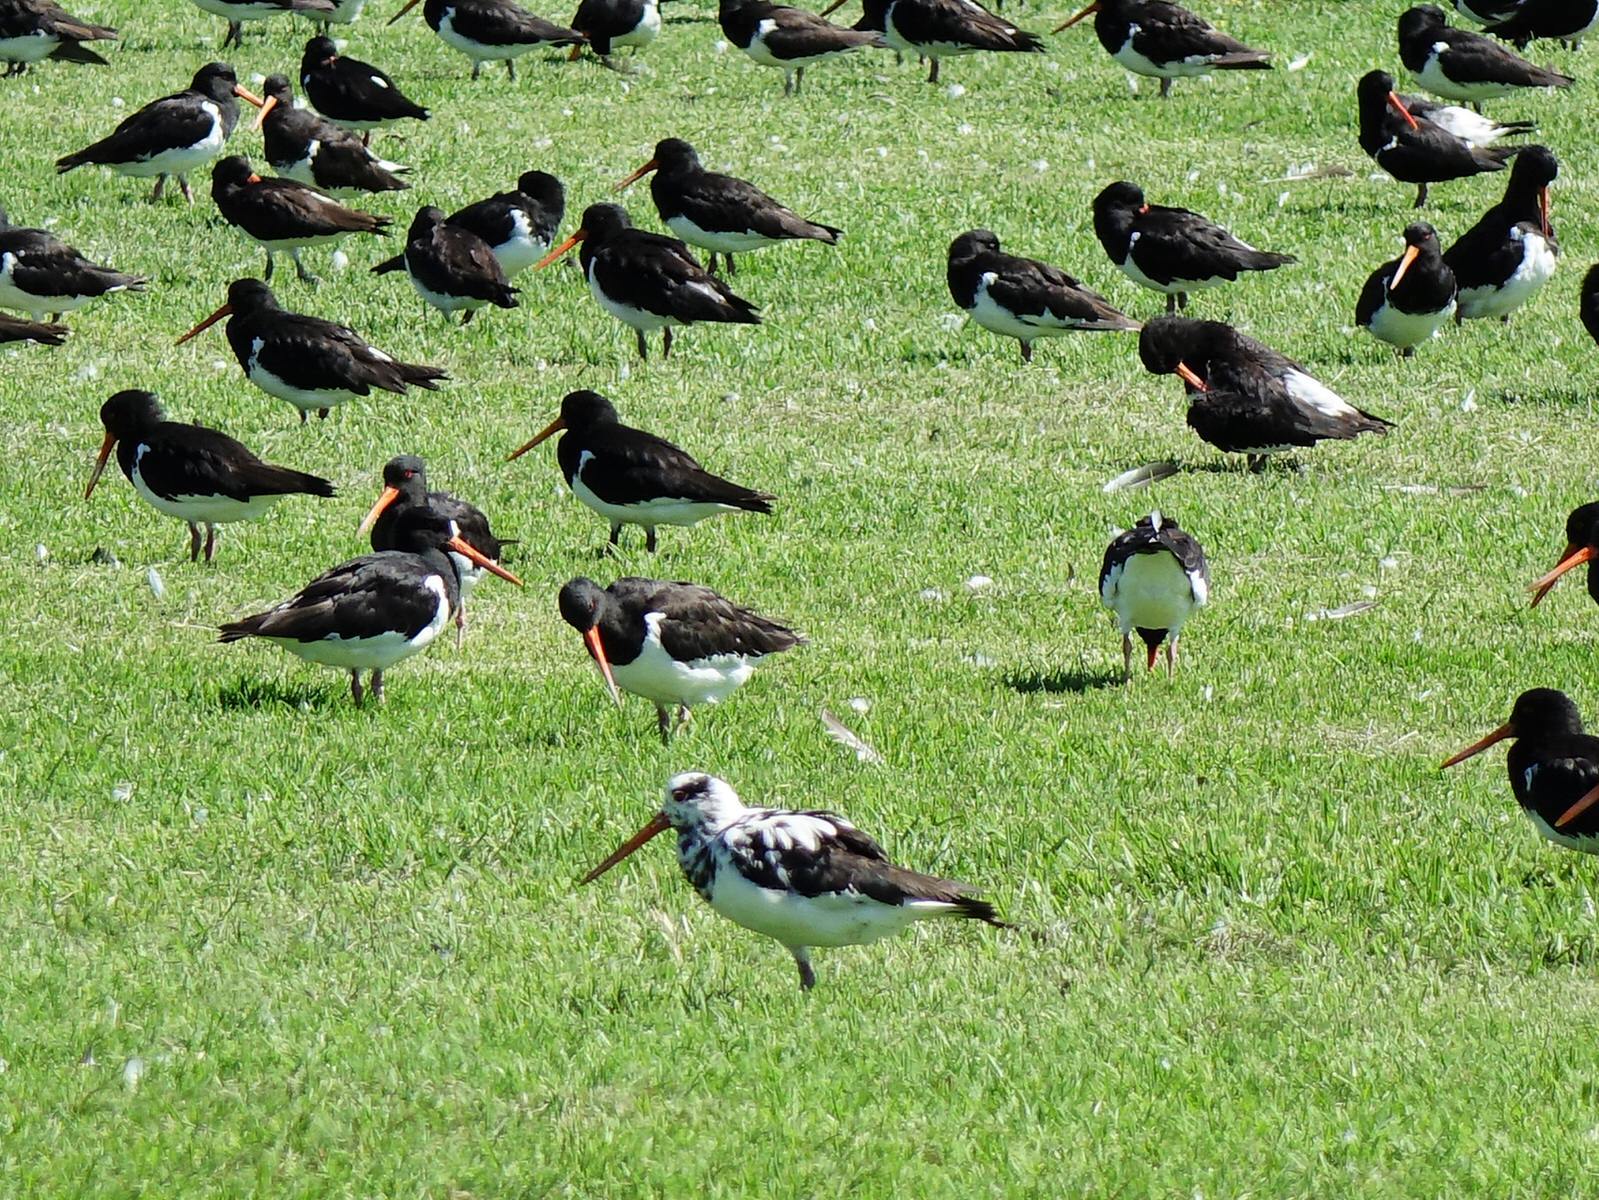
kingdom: Animalia
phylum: Chordata
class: Aves
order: Charadriiformes
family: Haematopodidae
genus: Haematopus
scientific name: Haematopus finschi
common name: South island oystercatcher
